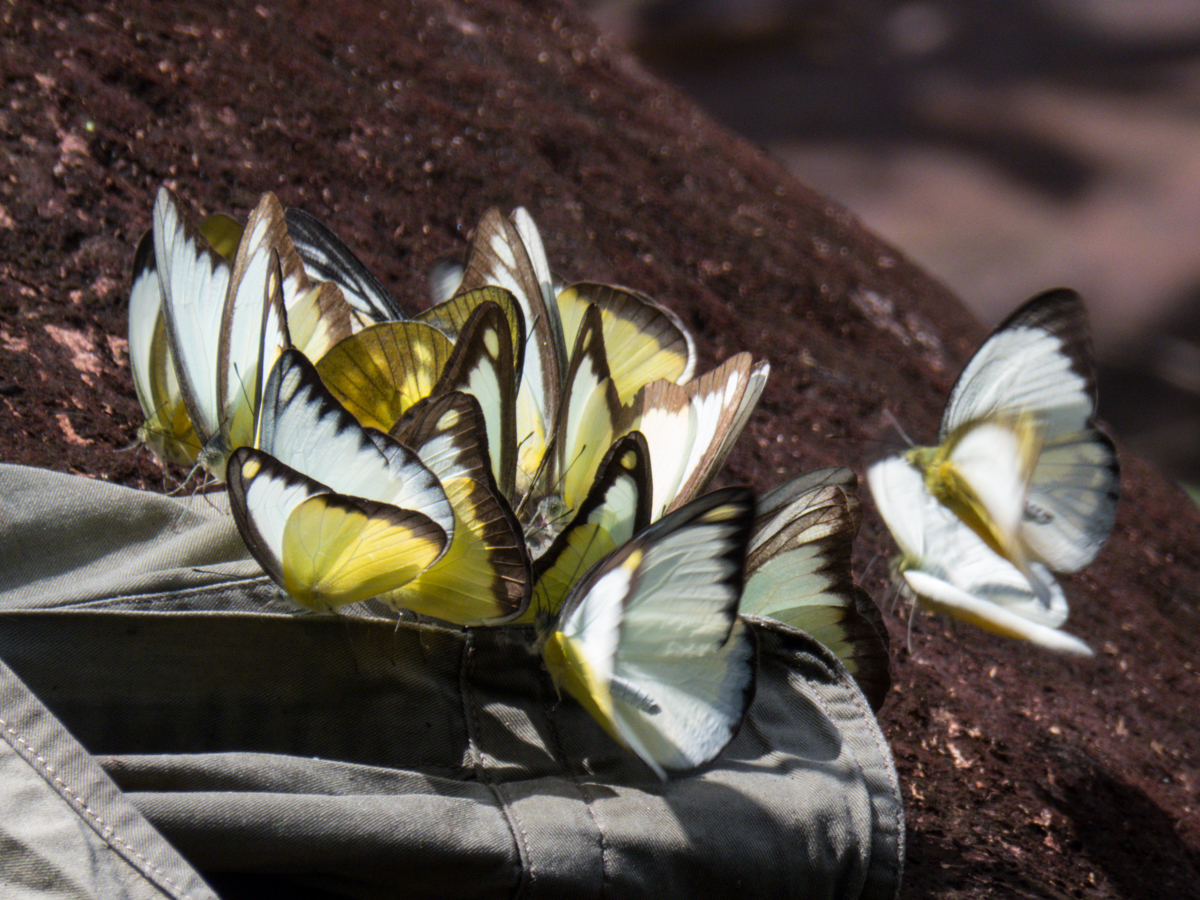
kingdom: Animalia
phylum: Arthropoda
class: Insecta
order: Lepidoptera
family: Pieridae
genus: Appias
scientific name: Appias lyncida
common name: Chocolate albatross
